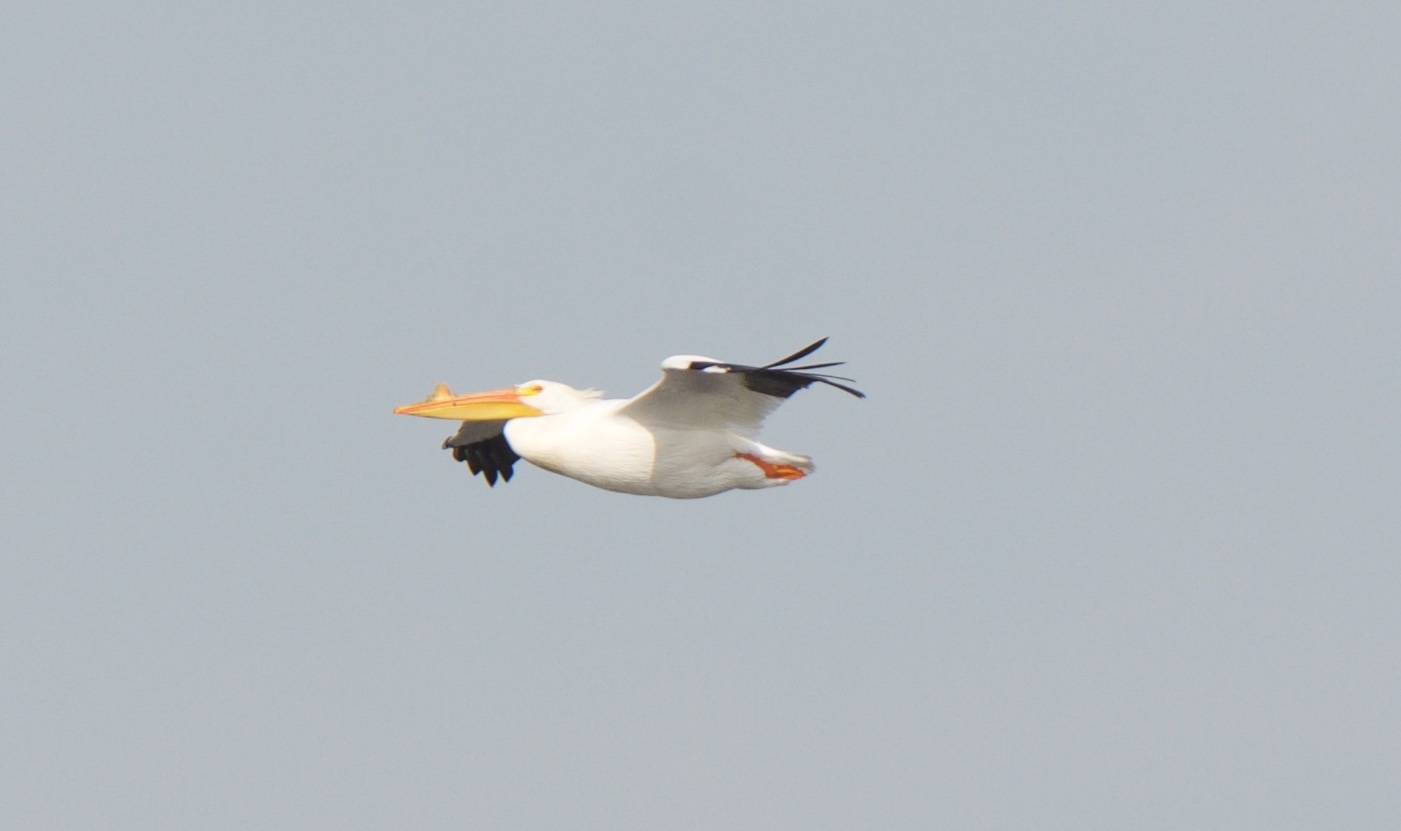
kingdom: Animalia
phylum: Chordata
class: Aves
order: Pelecaniformes
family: Pelecanidae
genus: Pelecanus
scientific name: Pelecanus erythrorhynchos
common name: American white pelican
